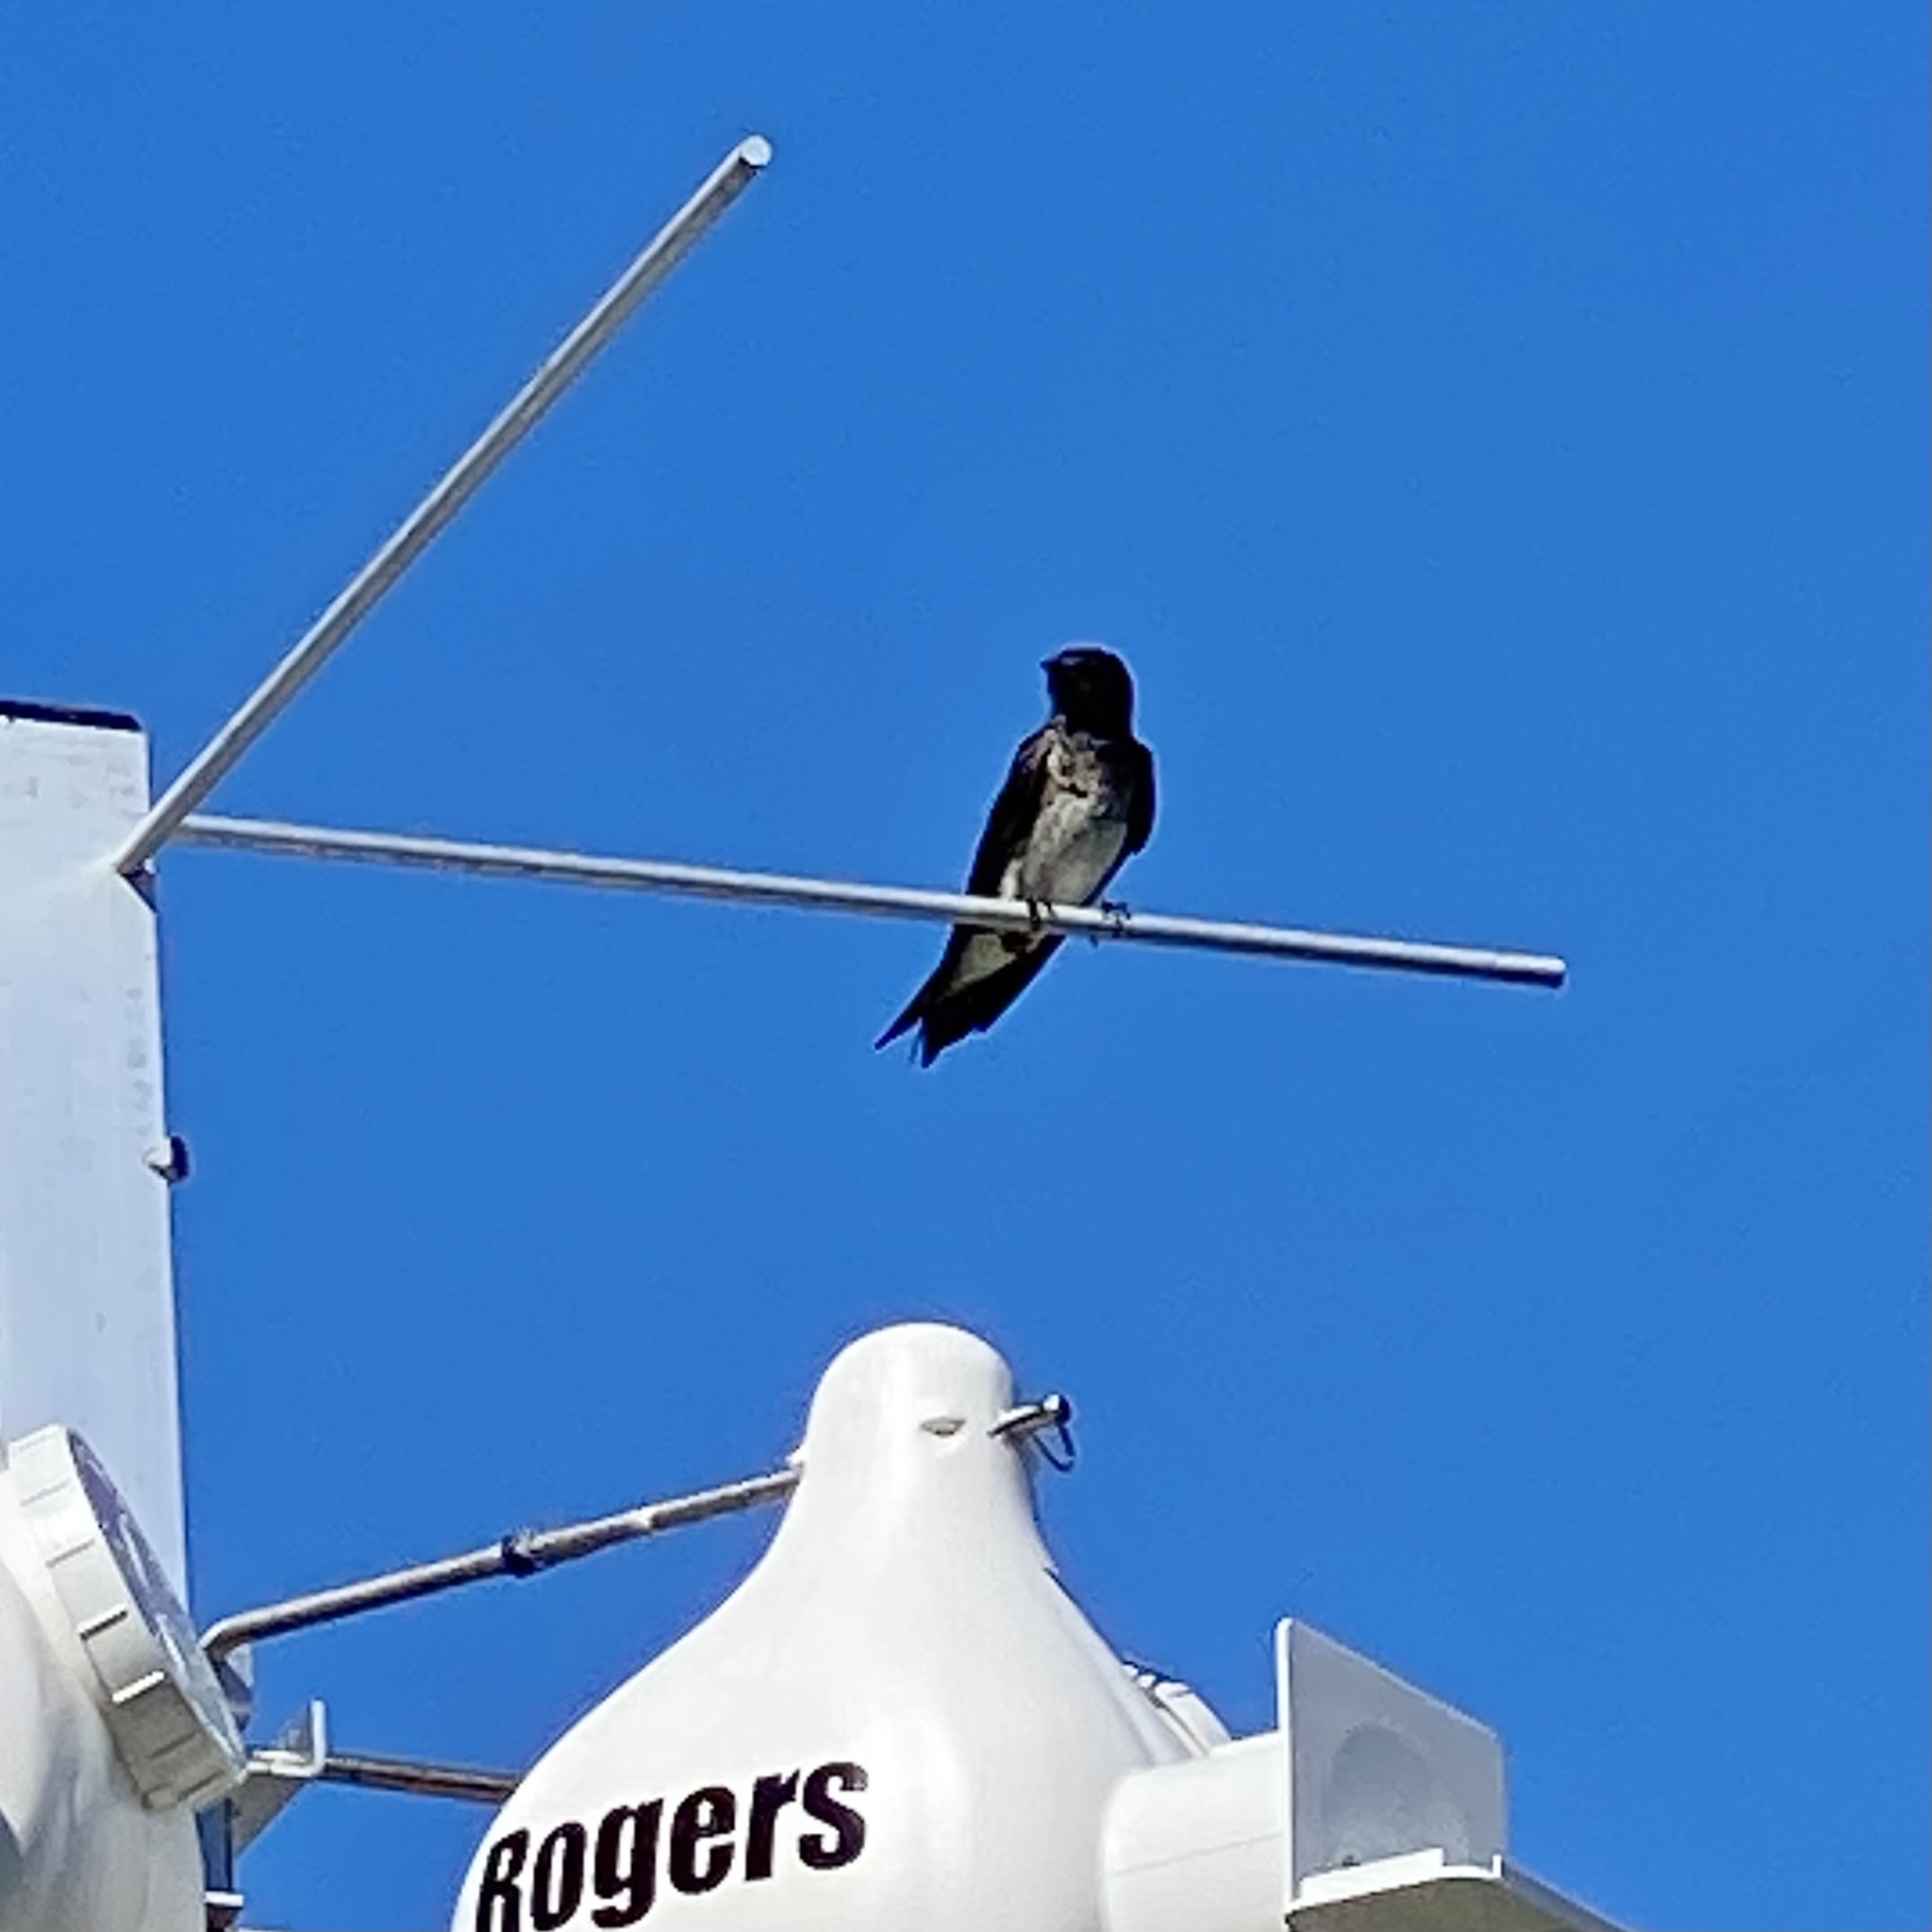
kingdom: Animalia
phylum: Chordata
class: Aves
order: Passeriformes
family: Hirundinidae
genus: Progne
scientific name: Progne subis
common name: Purple martin
